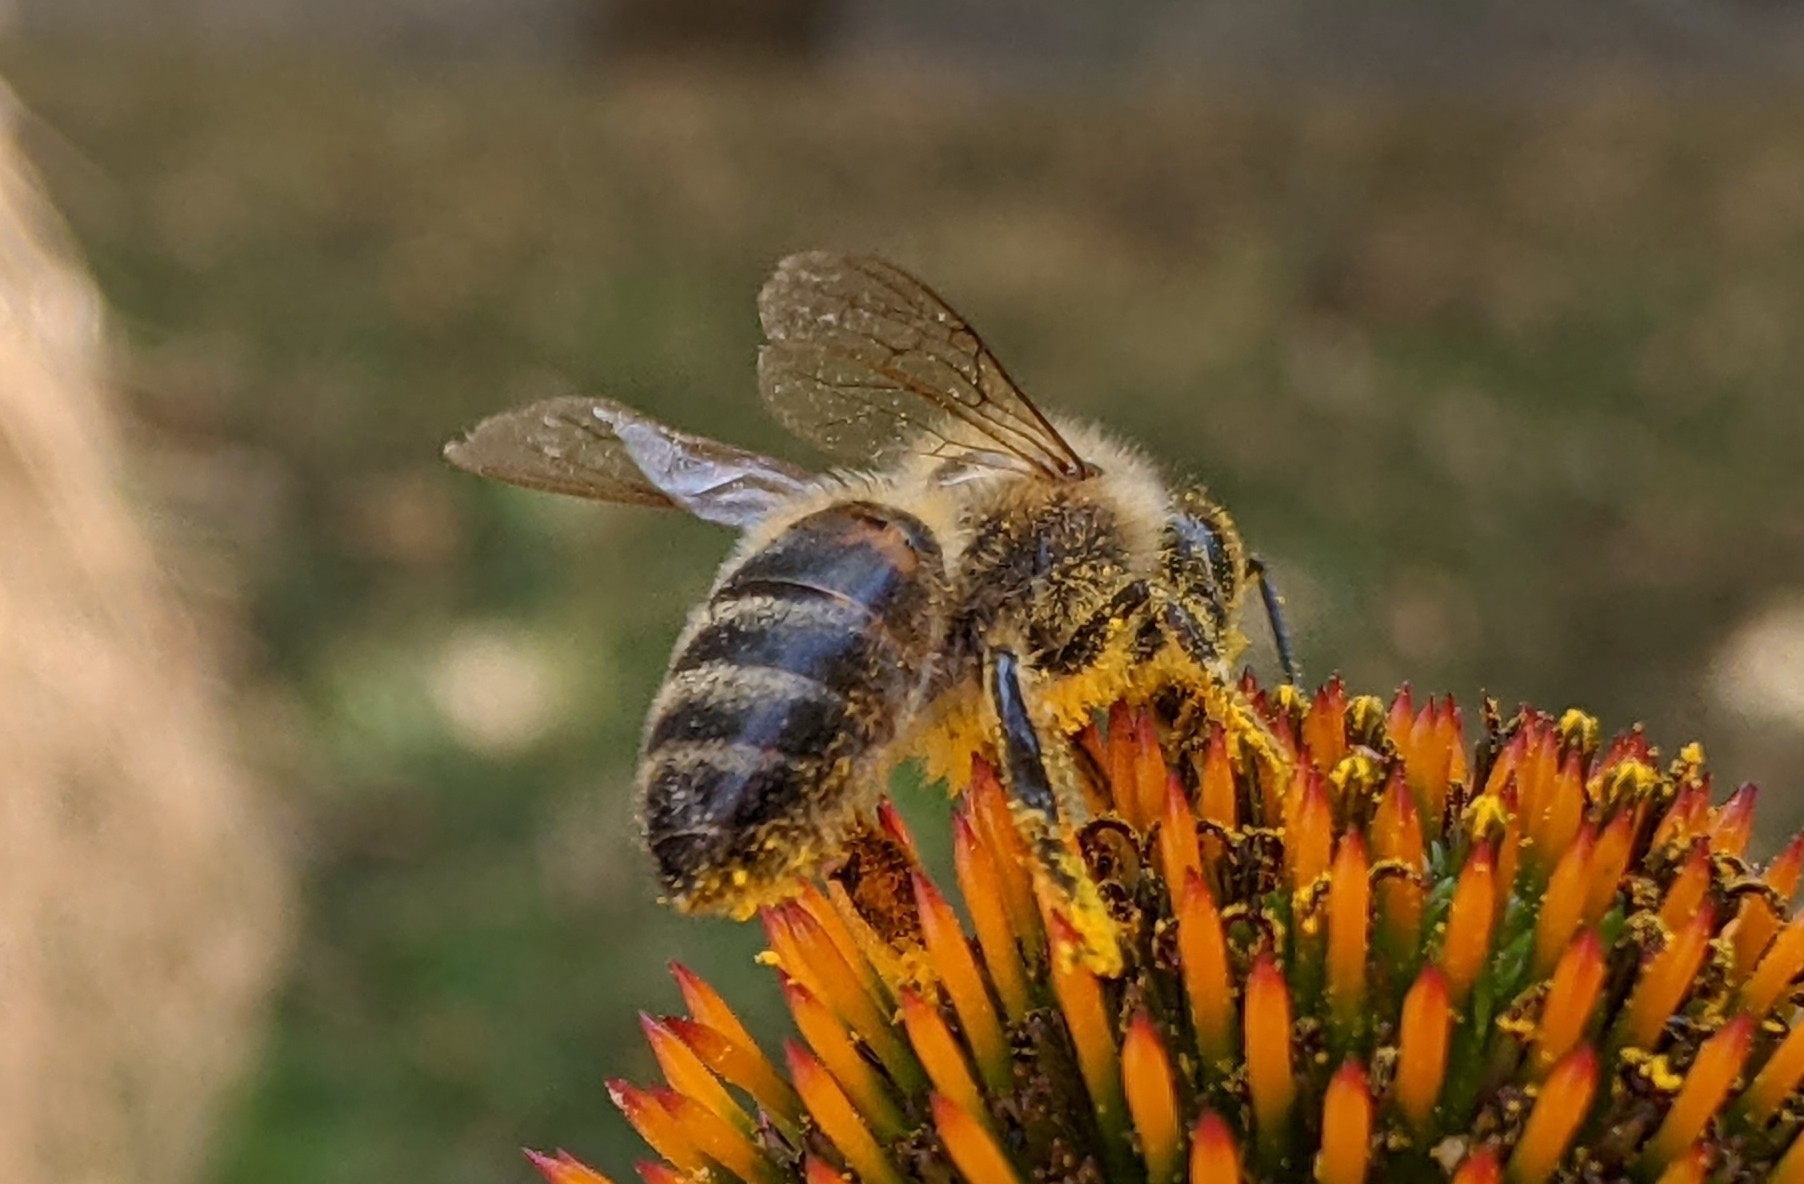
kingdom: Animalia
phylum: Arthropoda
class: Insecta
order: Hymenoptera
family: Apidae
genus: Apis
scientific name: Apis mellifera
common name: Honey bee
